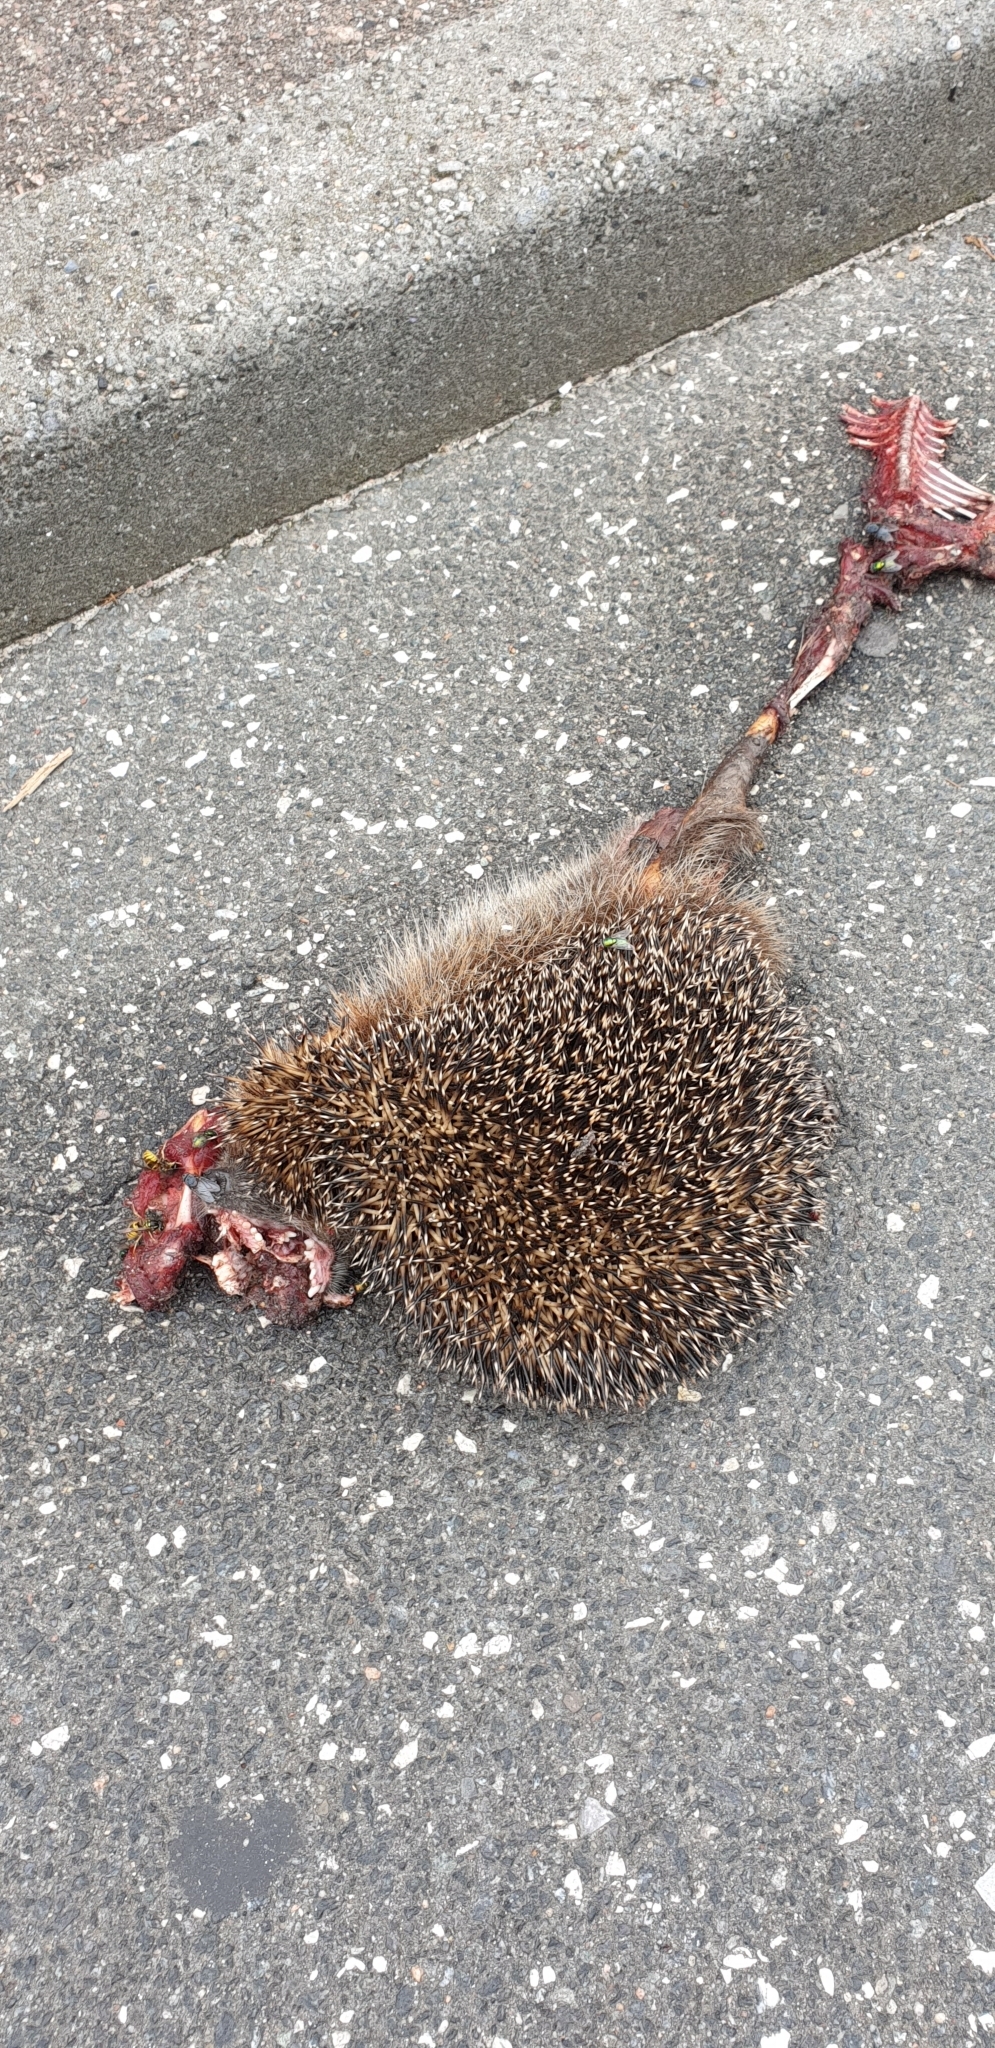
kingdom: Animalia
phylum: Chordata
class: Mammalia
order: Erinaceomorpha
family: Erinaceidae
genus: Erinaceus
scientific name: Erinaceus europaeus
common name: West european hedgehog
